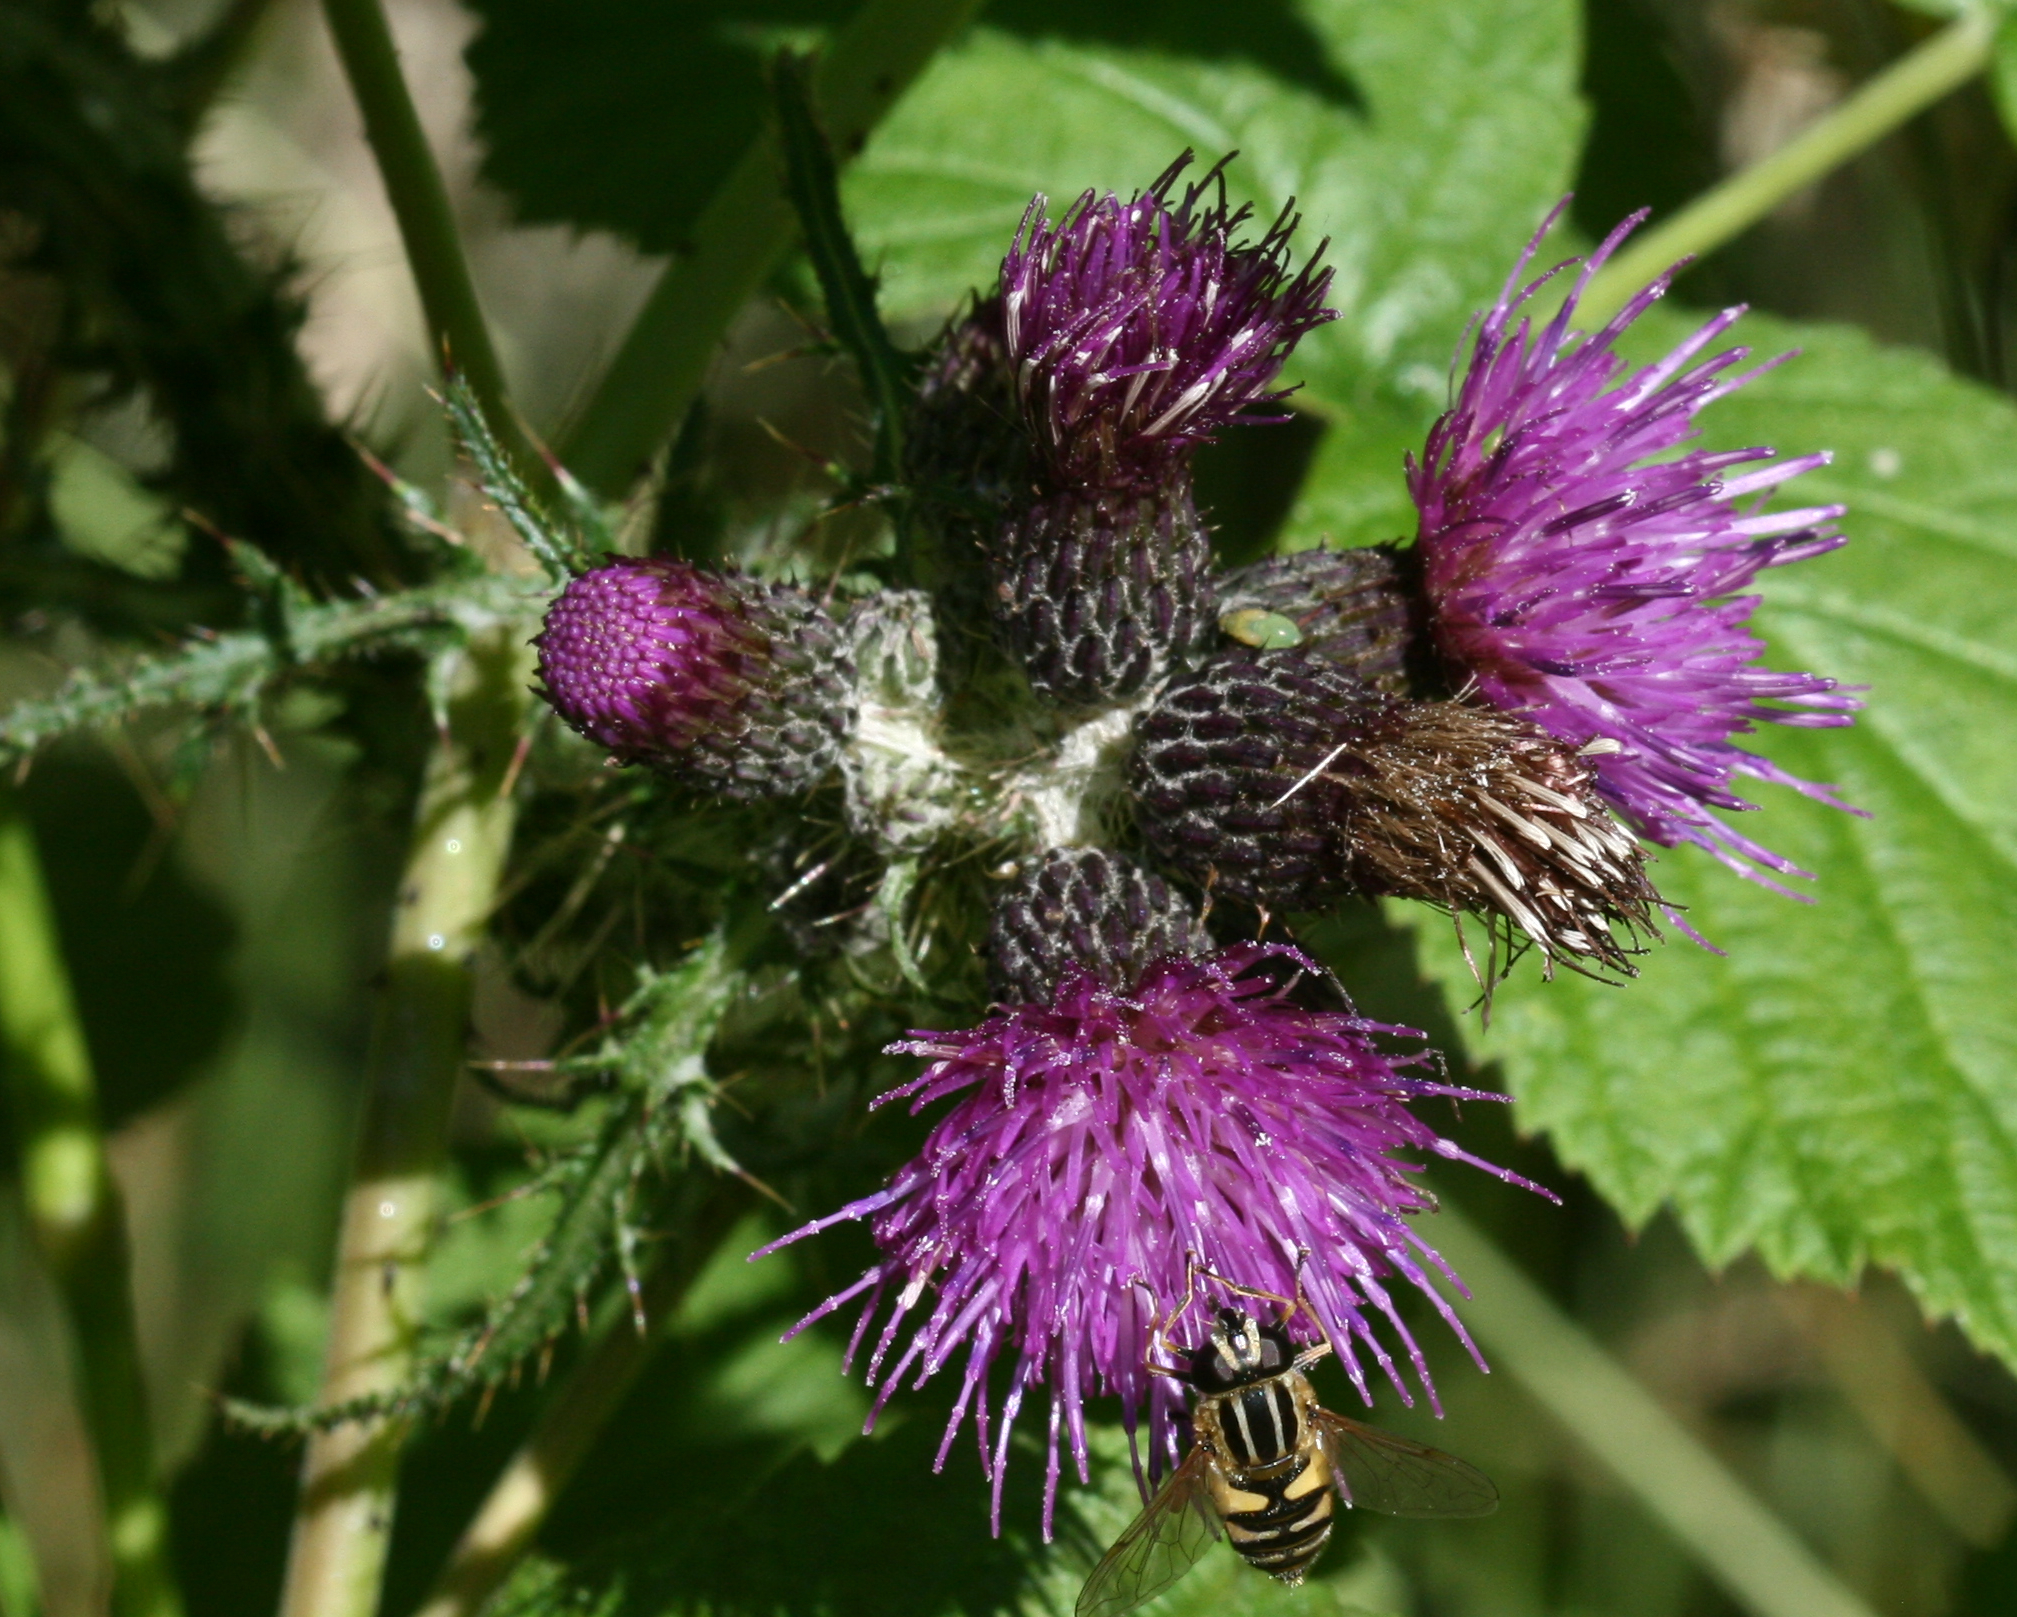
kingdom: Plantae
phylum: Tracheophyta
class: Magnoliopsida
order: Asterales
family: Asteraceae
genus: Cirsium
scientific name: Cirsium palustre
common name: Marsh thistle
